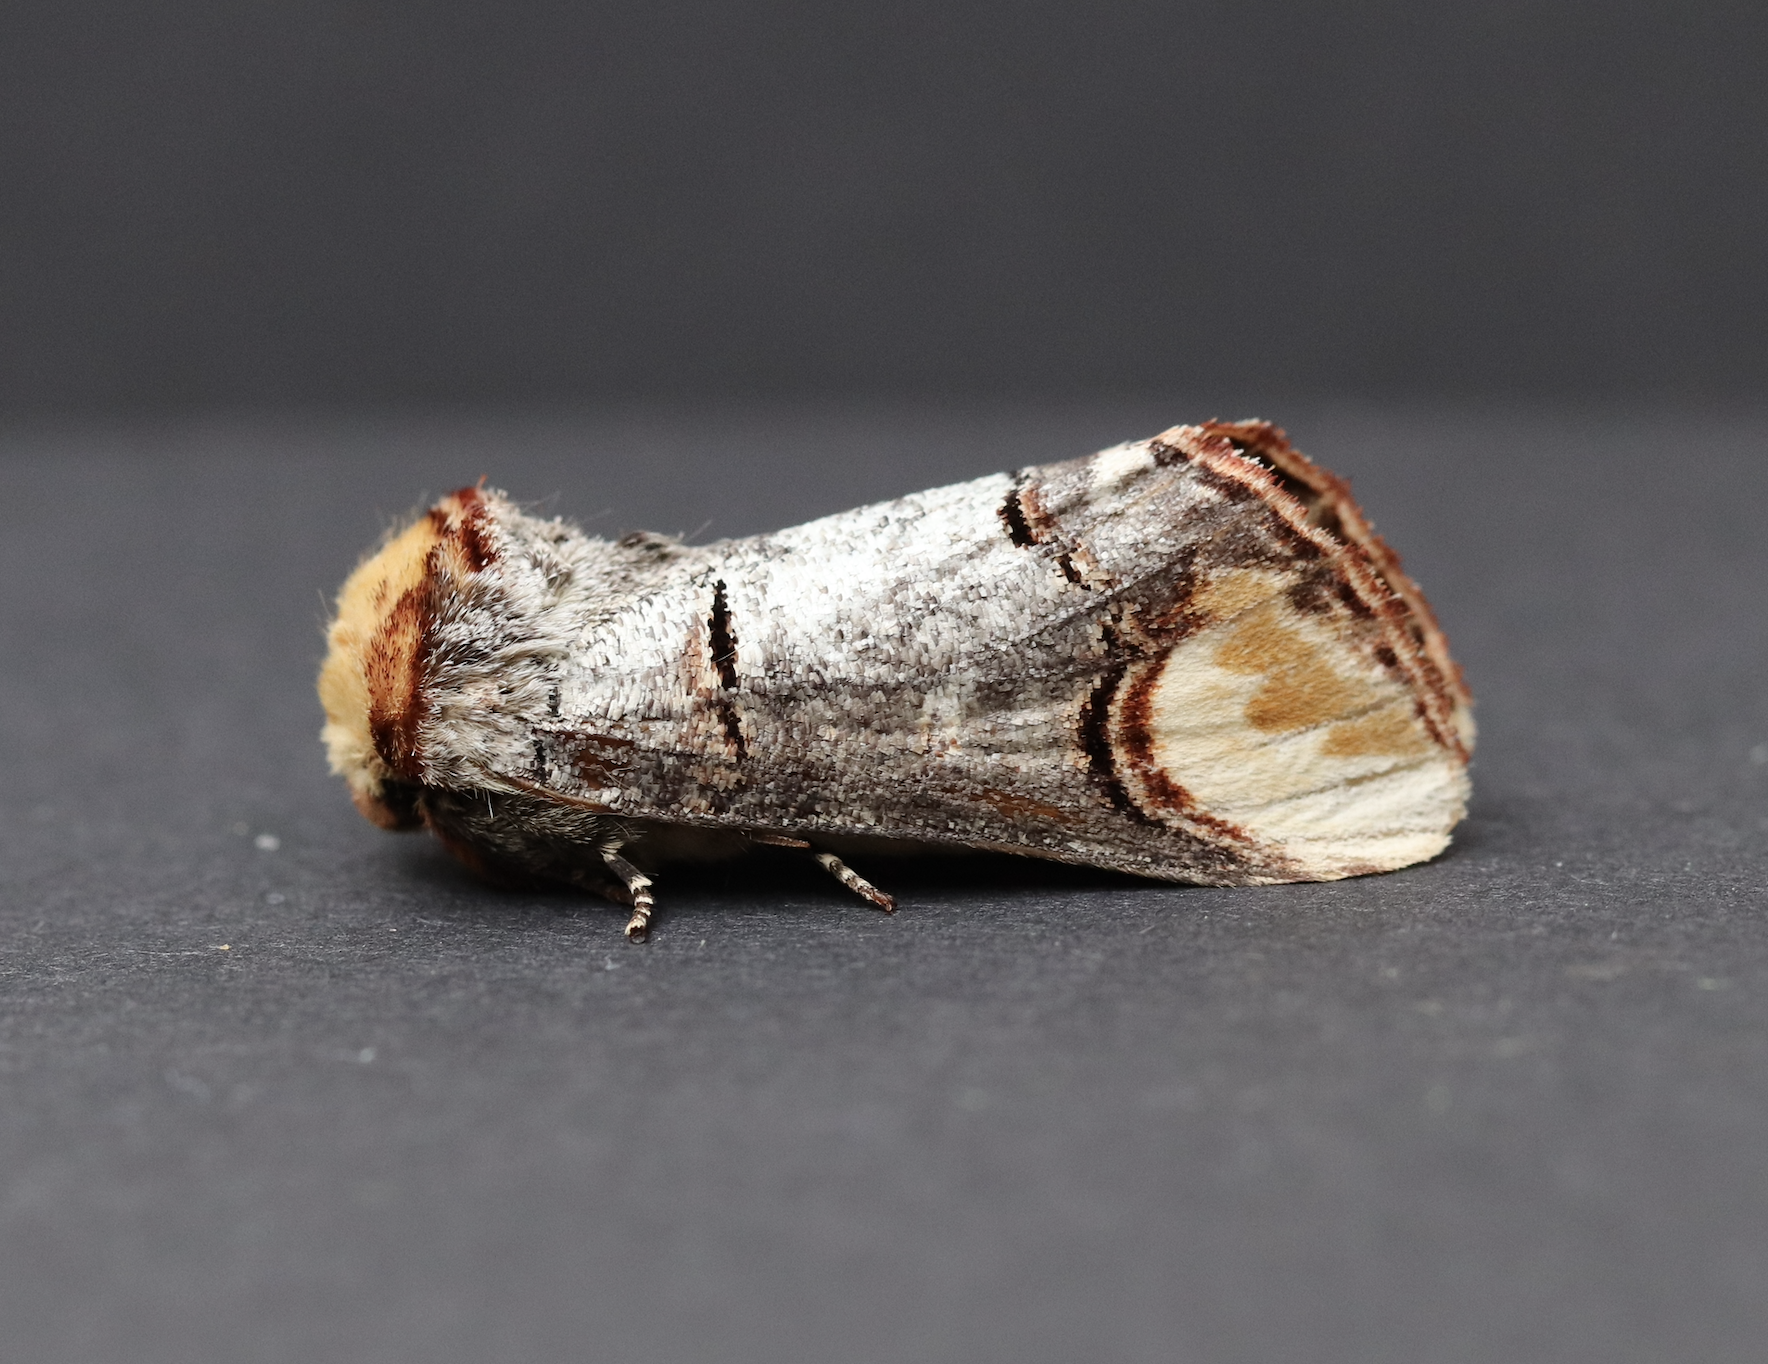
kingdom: Animalia
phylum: Arthropoda
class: Insecta
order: Lepidoptera
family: Notodontidae
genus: Phalera
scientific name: Phalera bucephala
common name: Buff-tip
